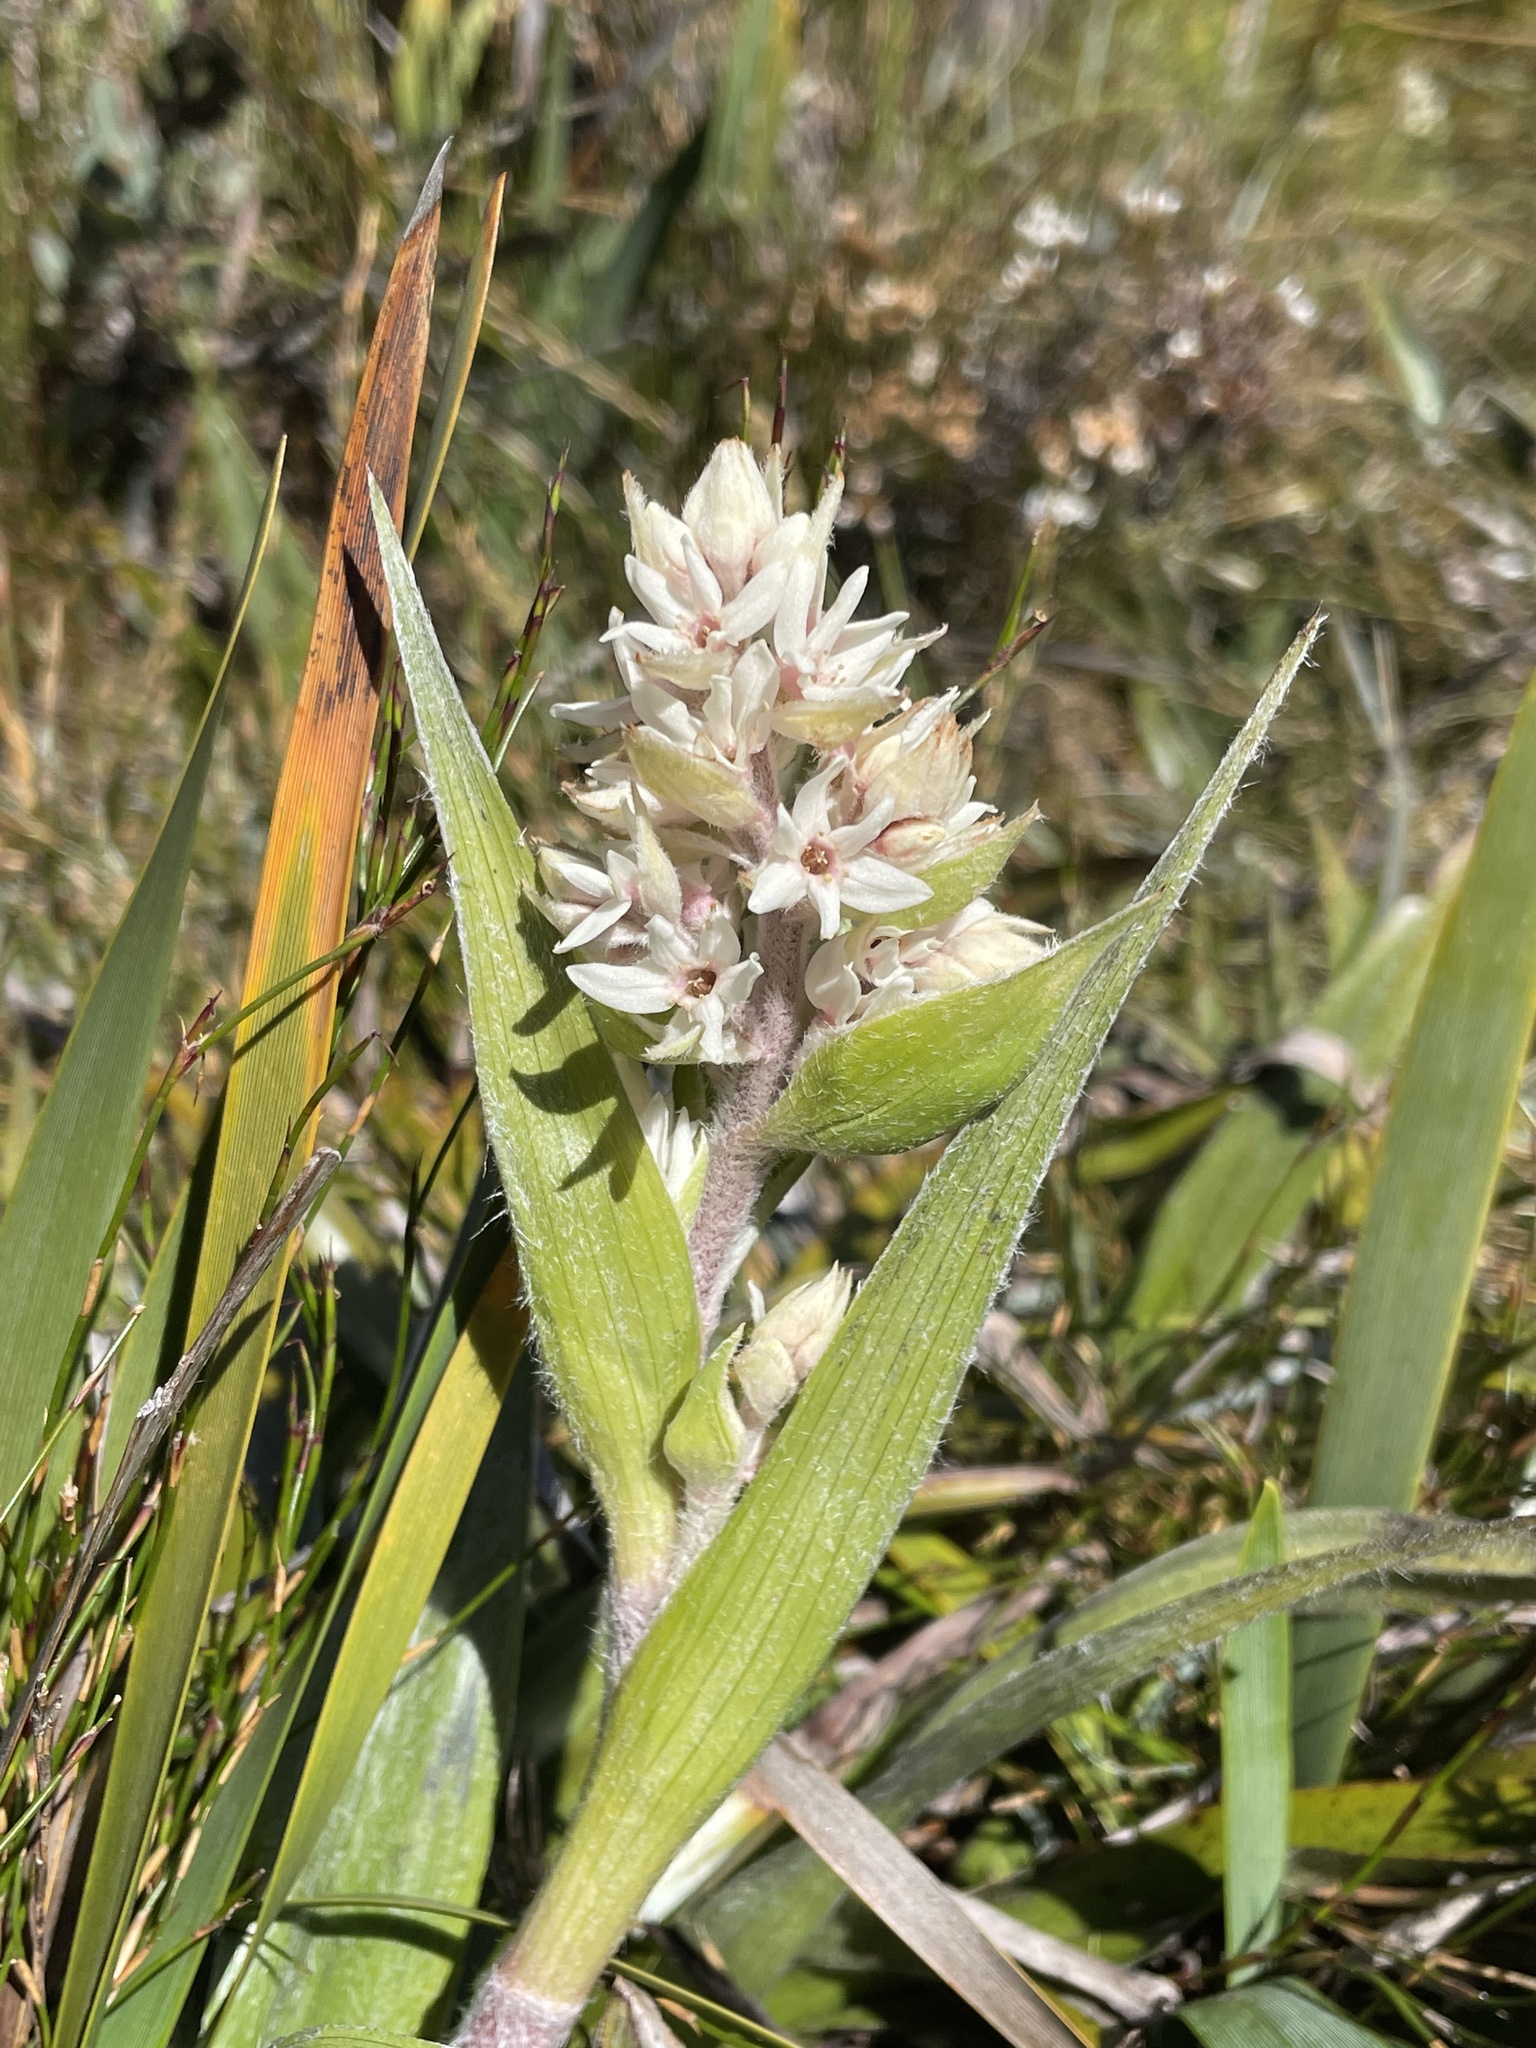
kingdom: Plantae
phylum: Tracheophyta
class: Liliopsida
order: Asparagales
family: Asteliaceae
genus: Milligania
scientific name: Milligania densiflora
